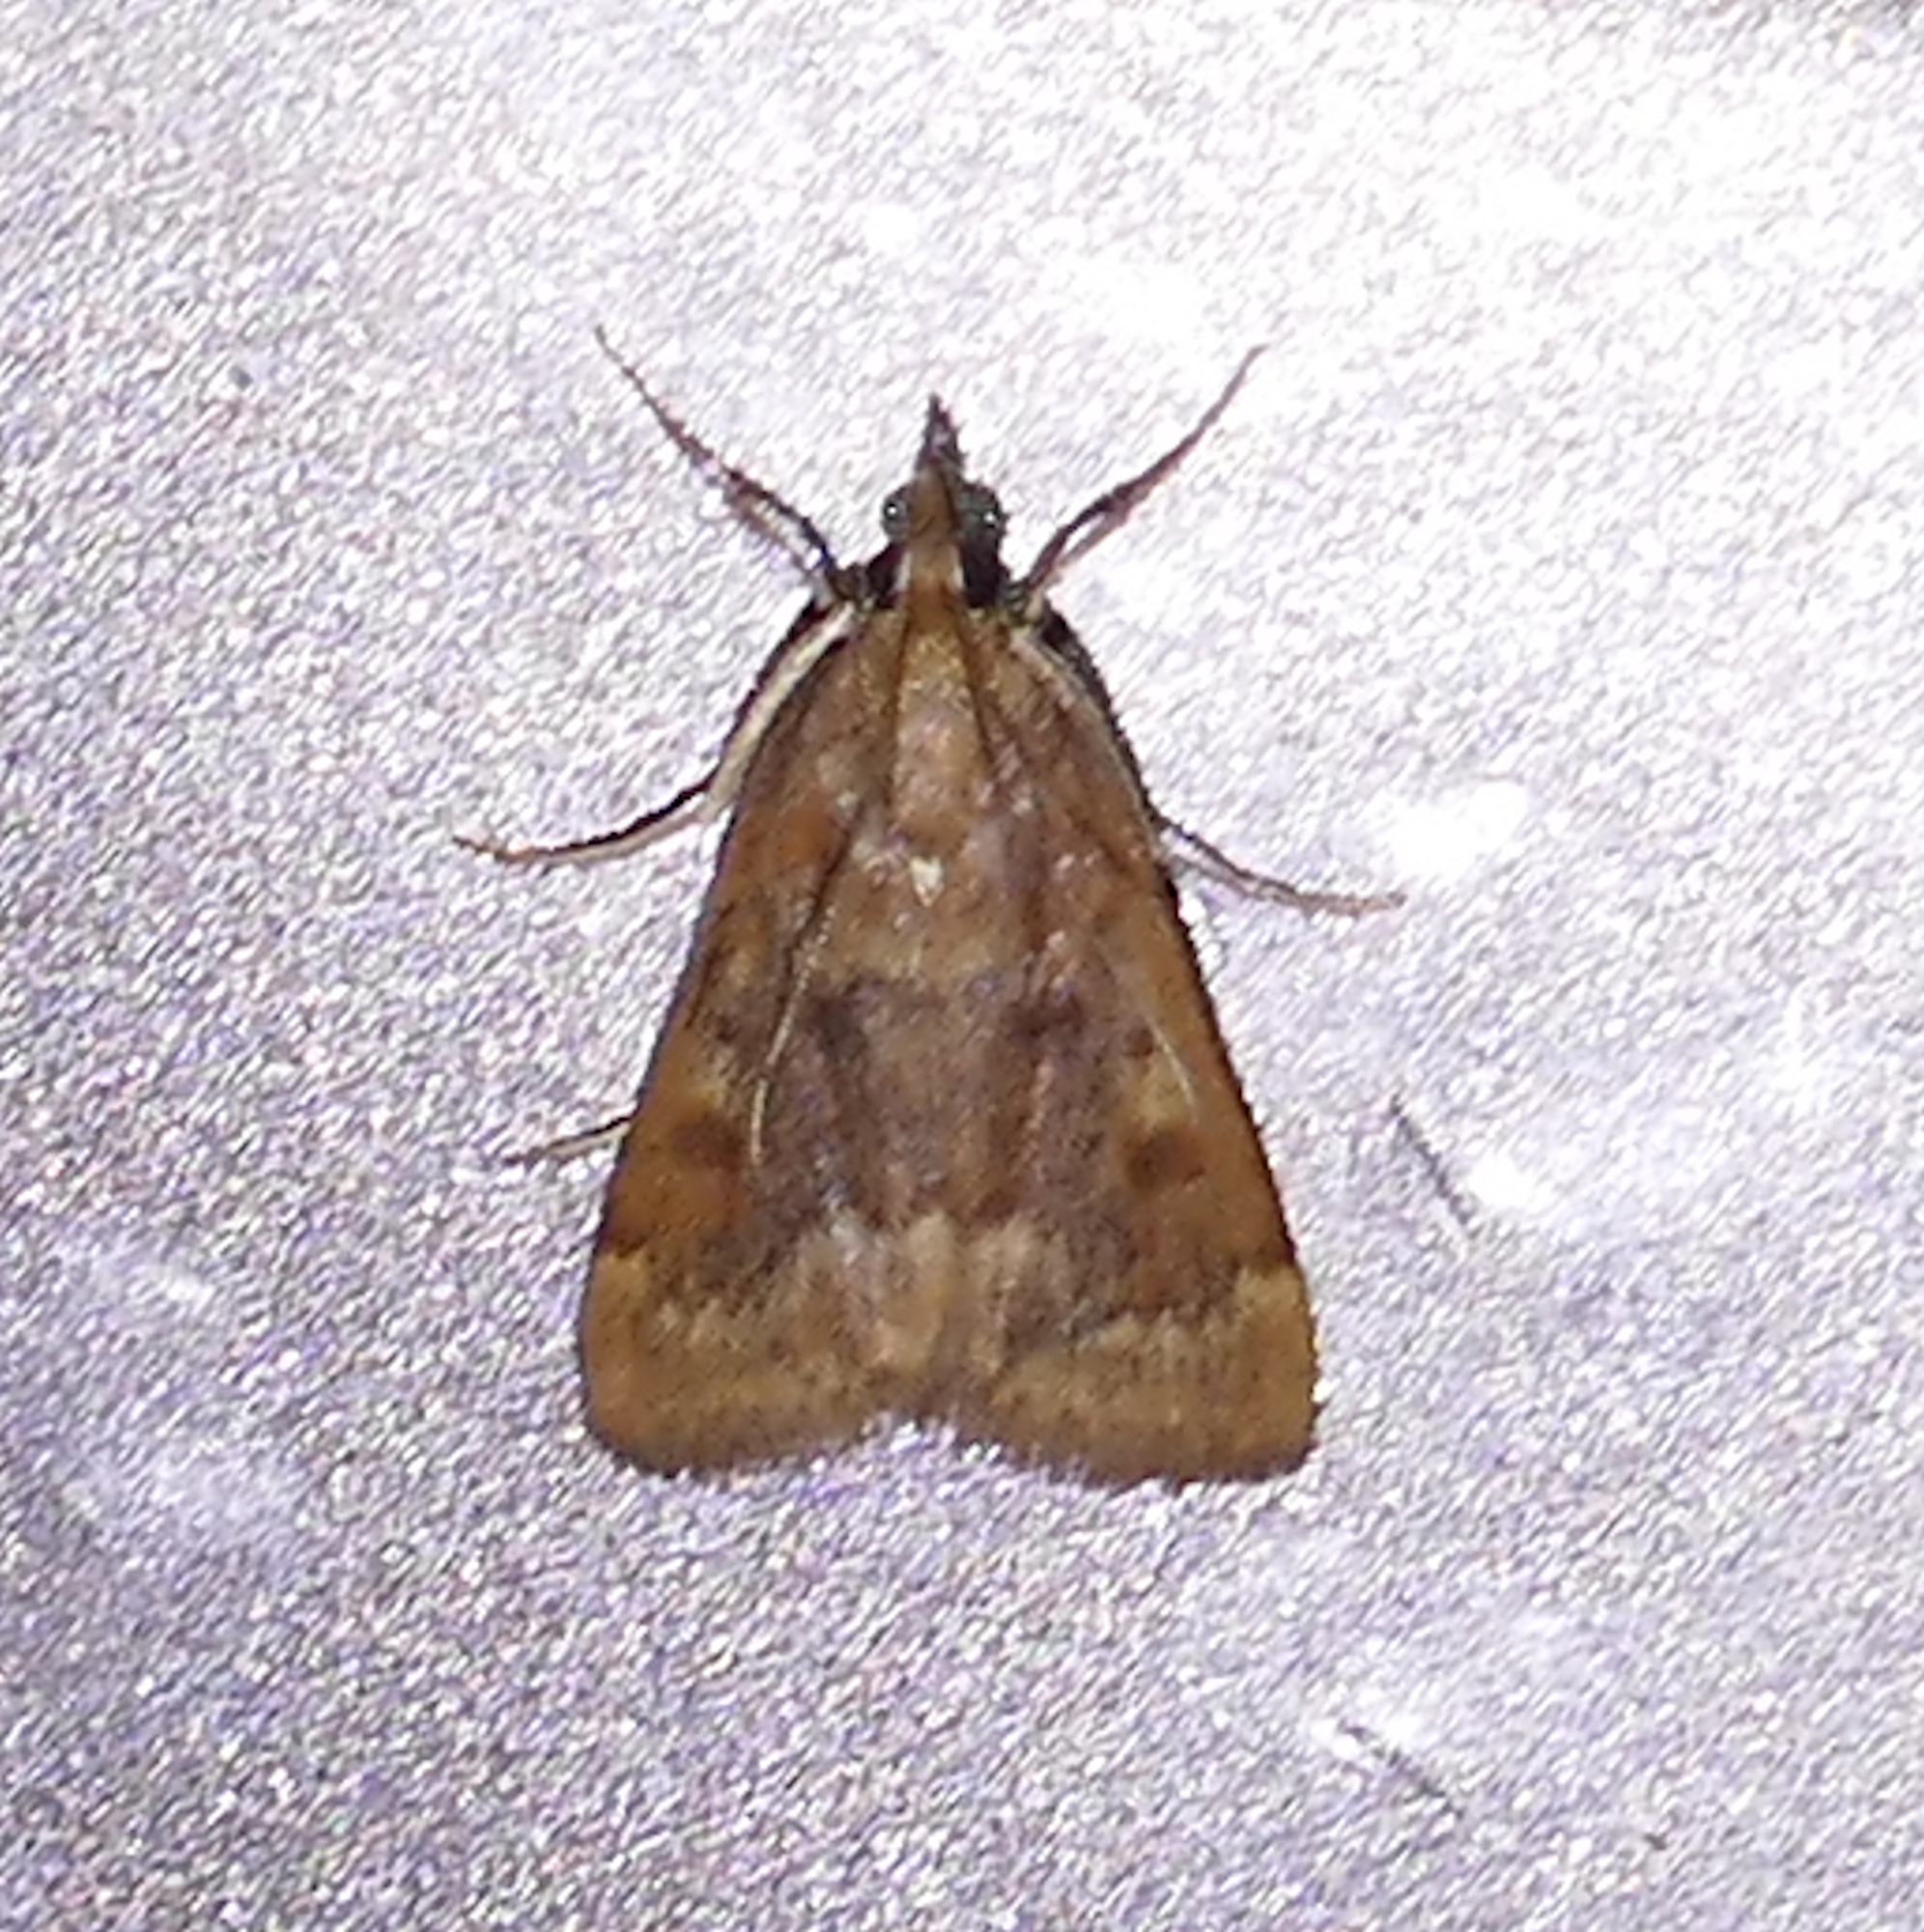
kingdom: Animalia
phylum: Arthropoda
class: Insecta
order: Lepidoptera
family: Crambidae
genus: Achyra
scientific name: Achyra rantalis
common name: Garden webworm
